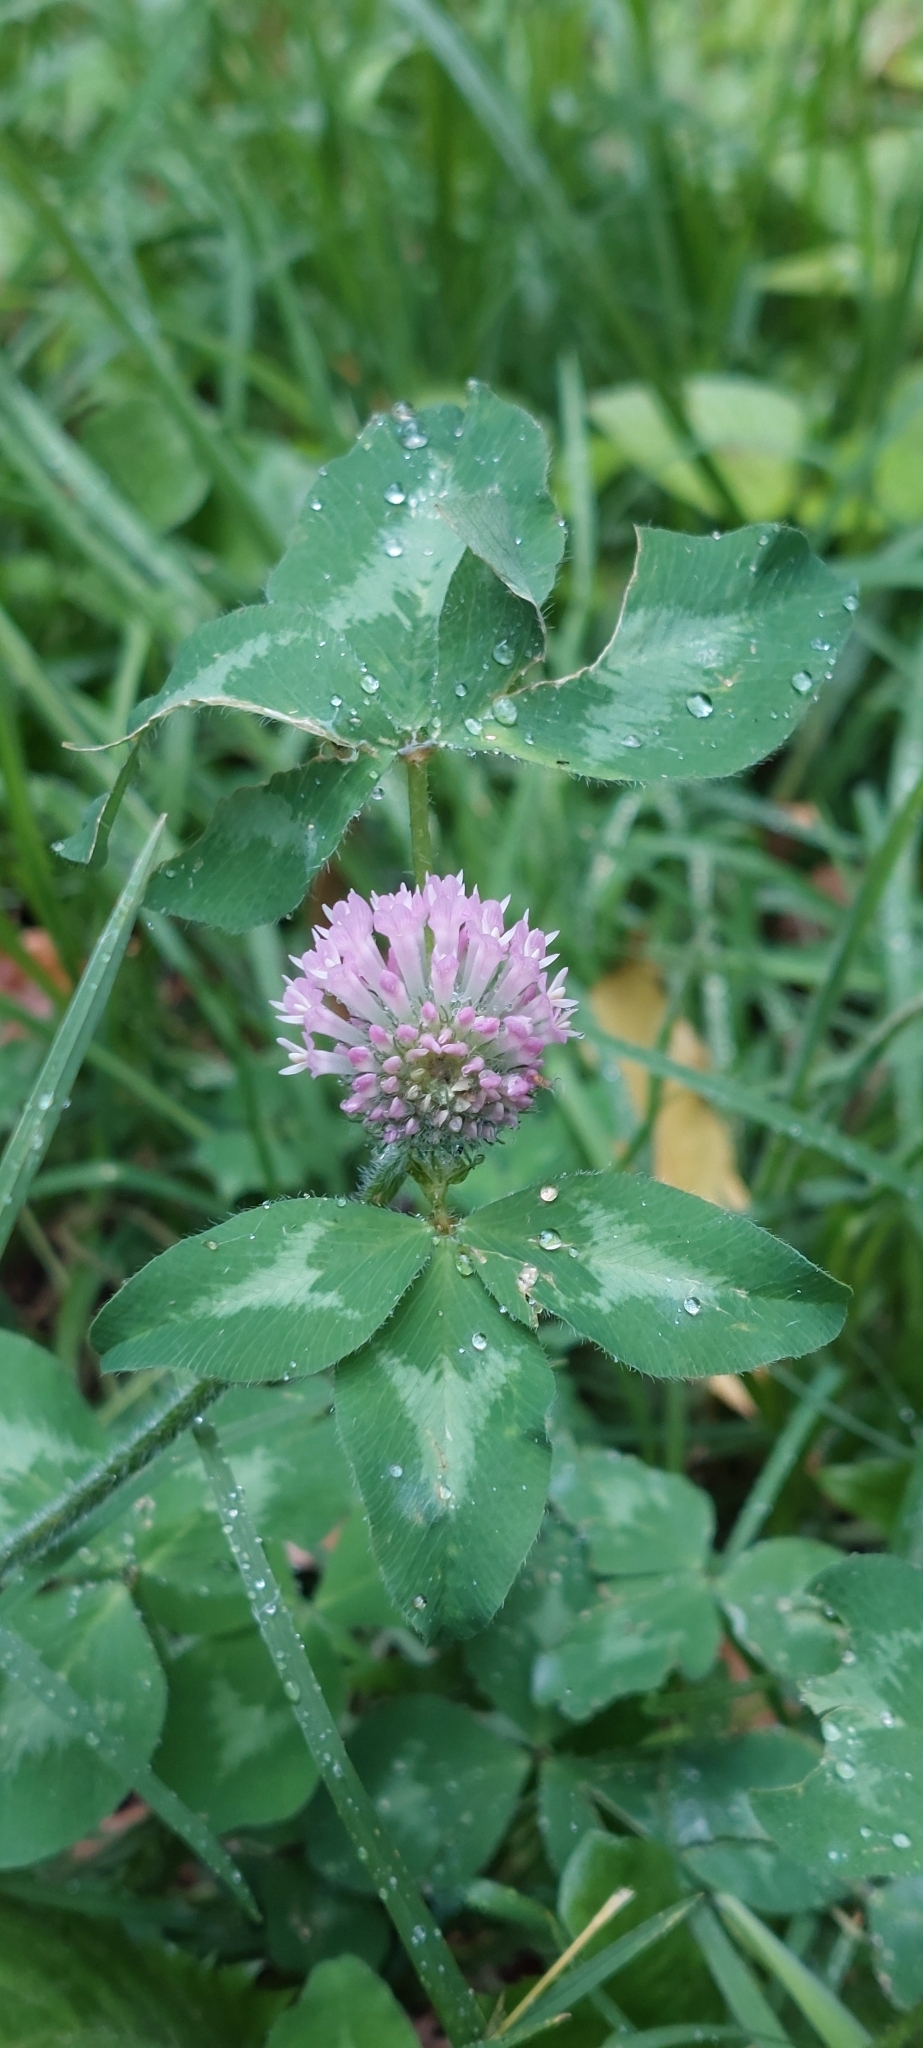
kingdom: Plantae
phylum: Tracheophyta
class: Magnoliopsida
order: Fabales
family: Fabaceae
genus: Trifolium
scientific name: Trifolium pratense
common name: Red clover
